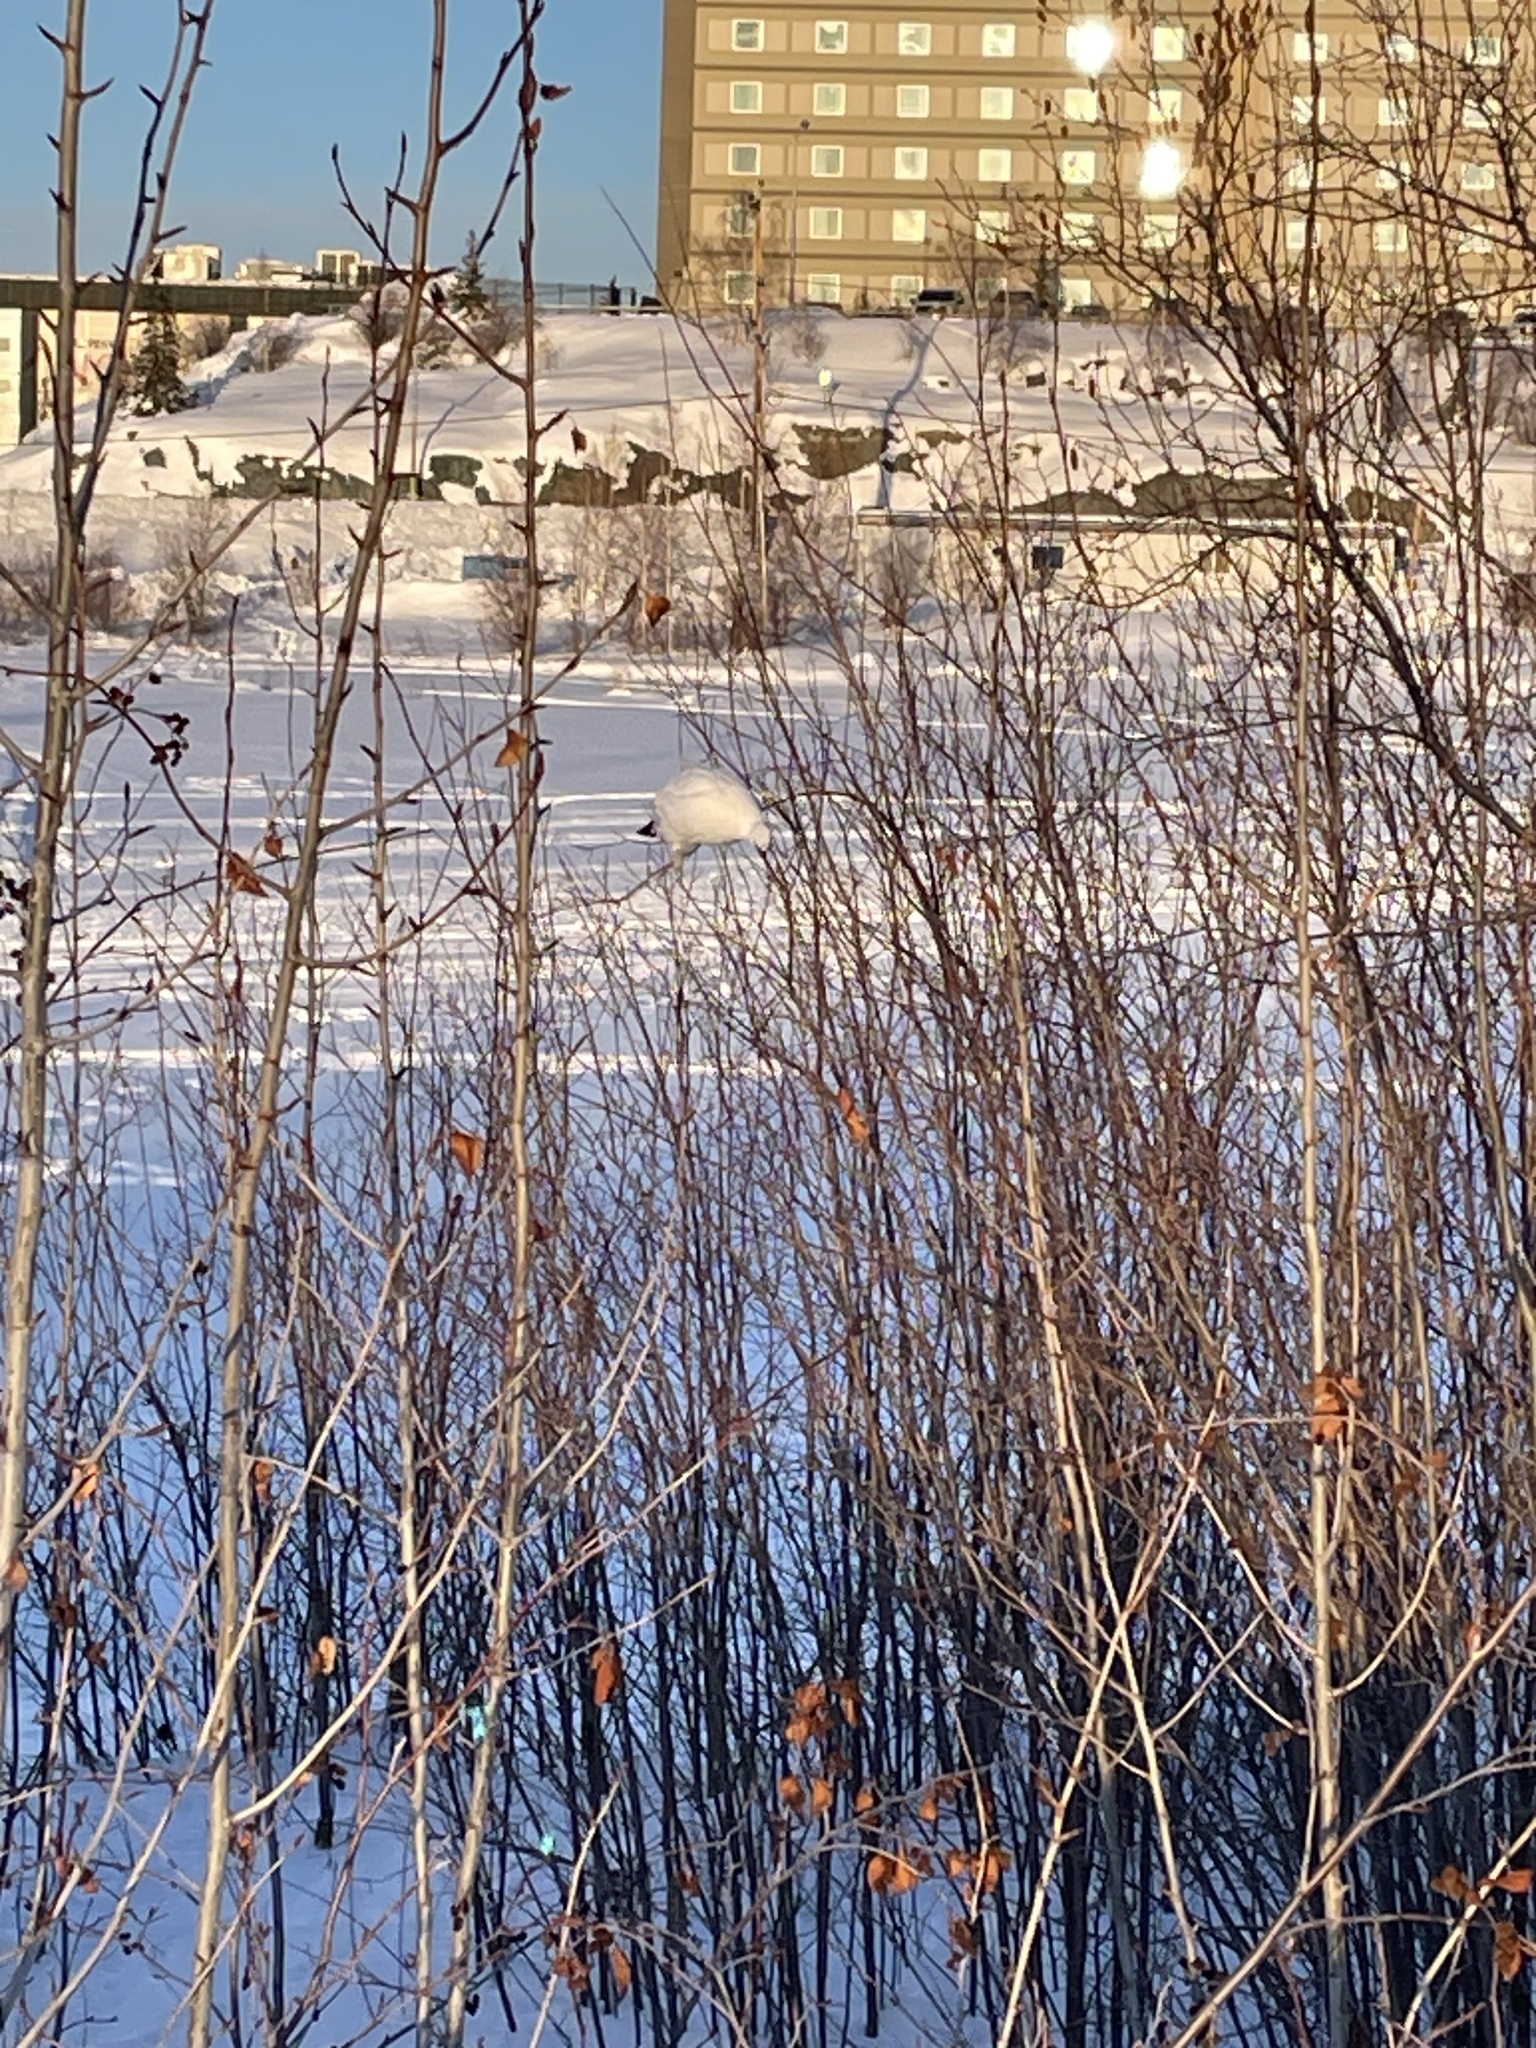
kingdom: Animalia
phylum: Chordata
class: Aves
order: Galliformes
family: Phasianidae
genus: Lagopus
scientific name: Lagopus lagopus
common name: Willow ptarmigan
